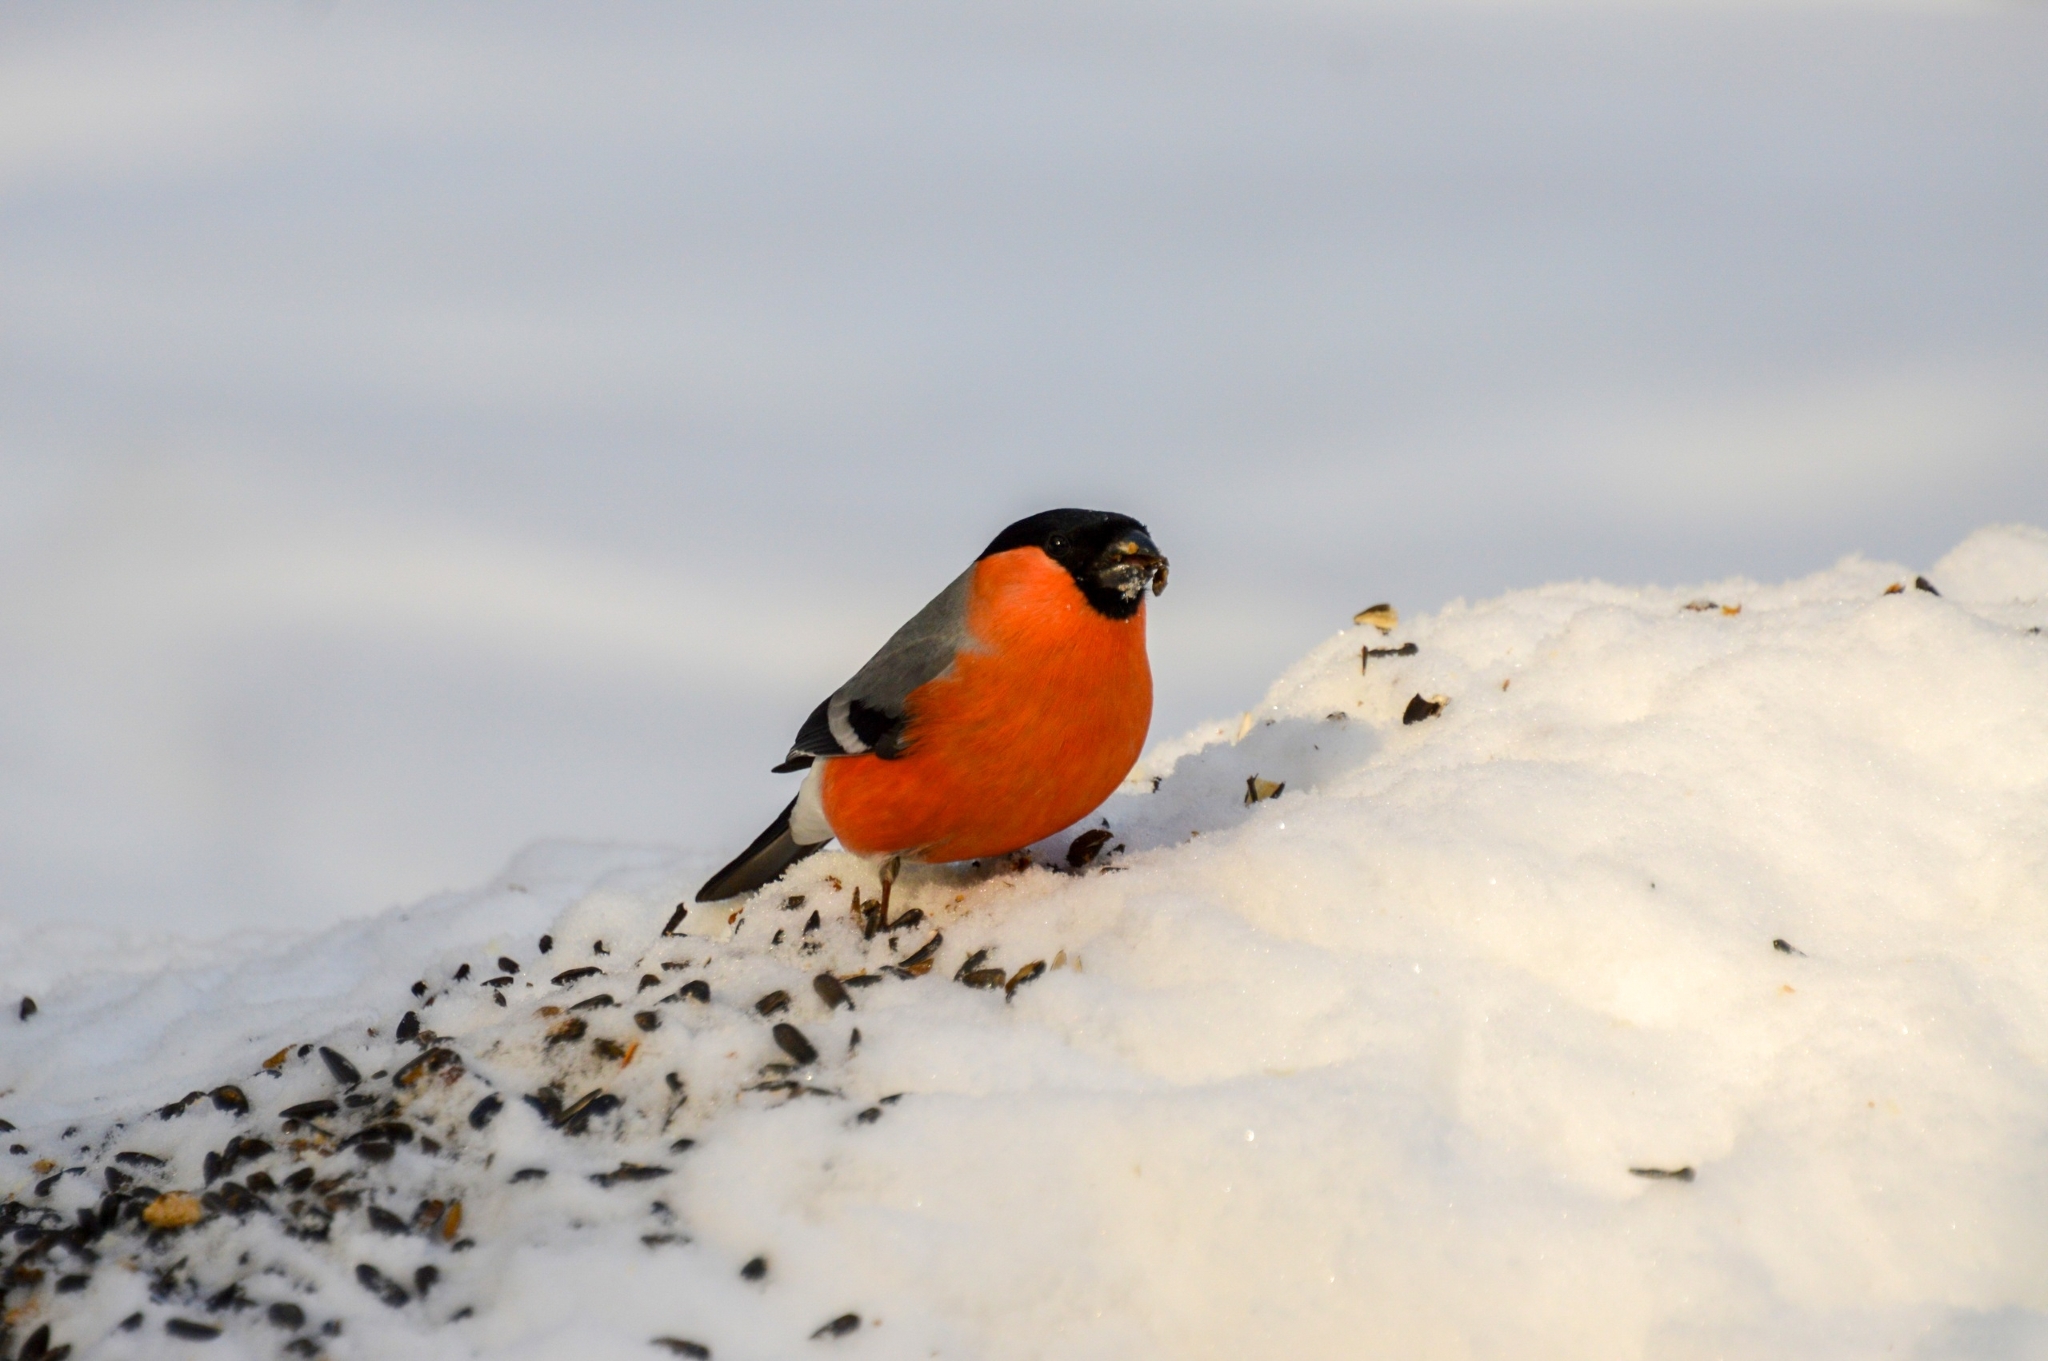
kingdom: Animalia
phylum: Chordata
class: Aves
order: Passeriformes
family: Fringillidae
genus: Pyrrhula
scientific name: Pyrrhula pyrrhula
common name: Eurasian bullfinch
